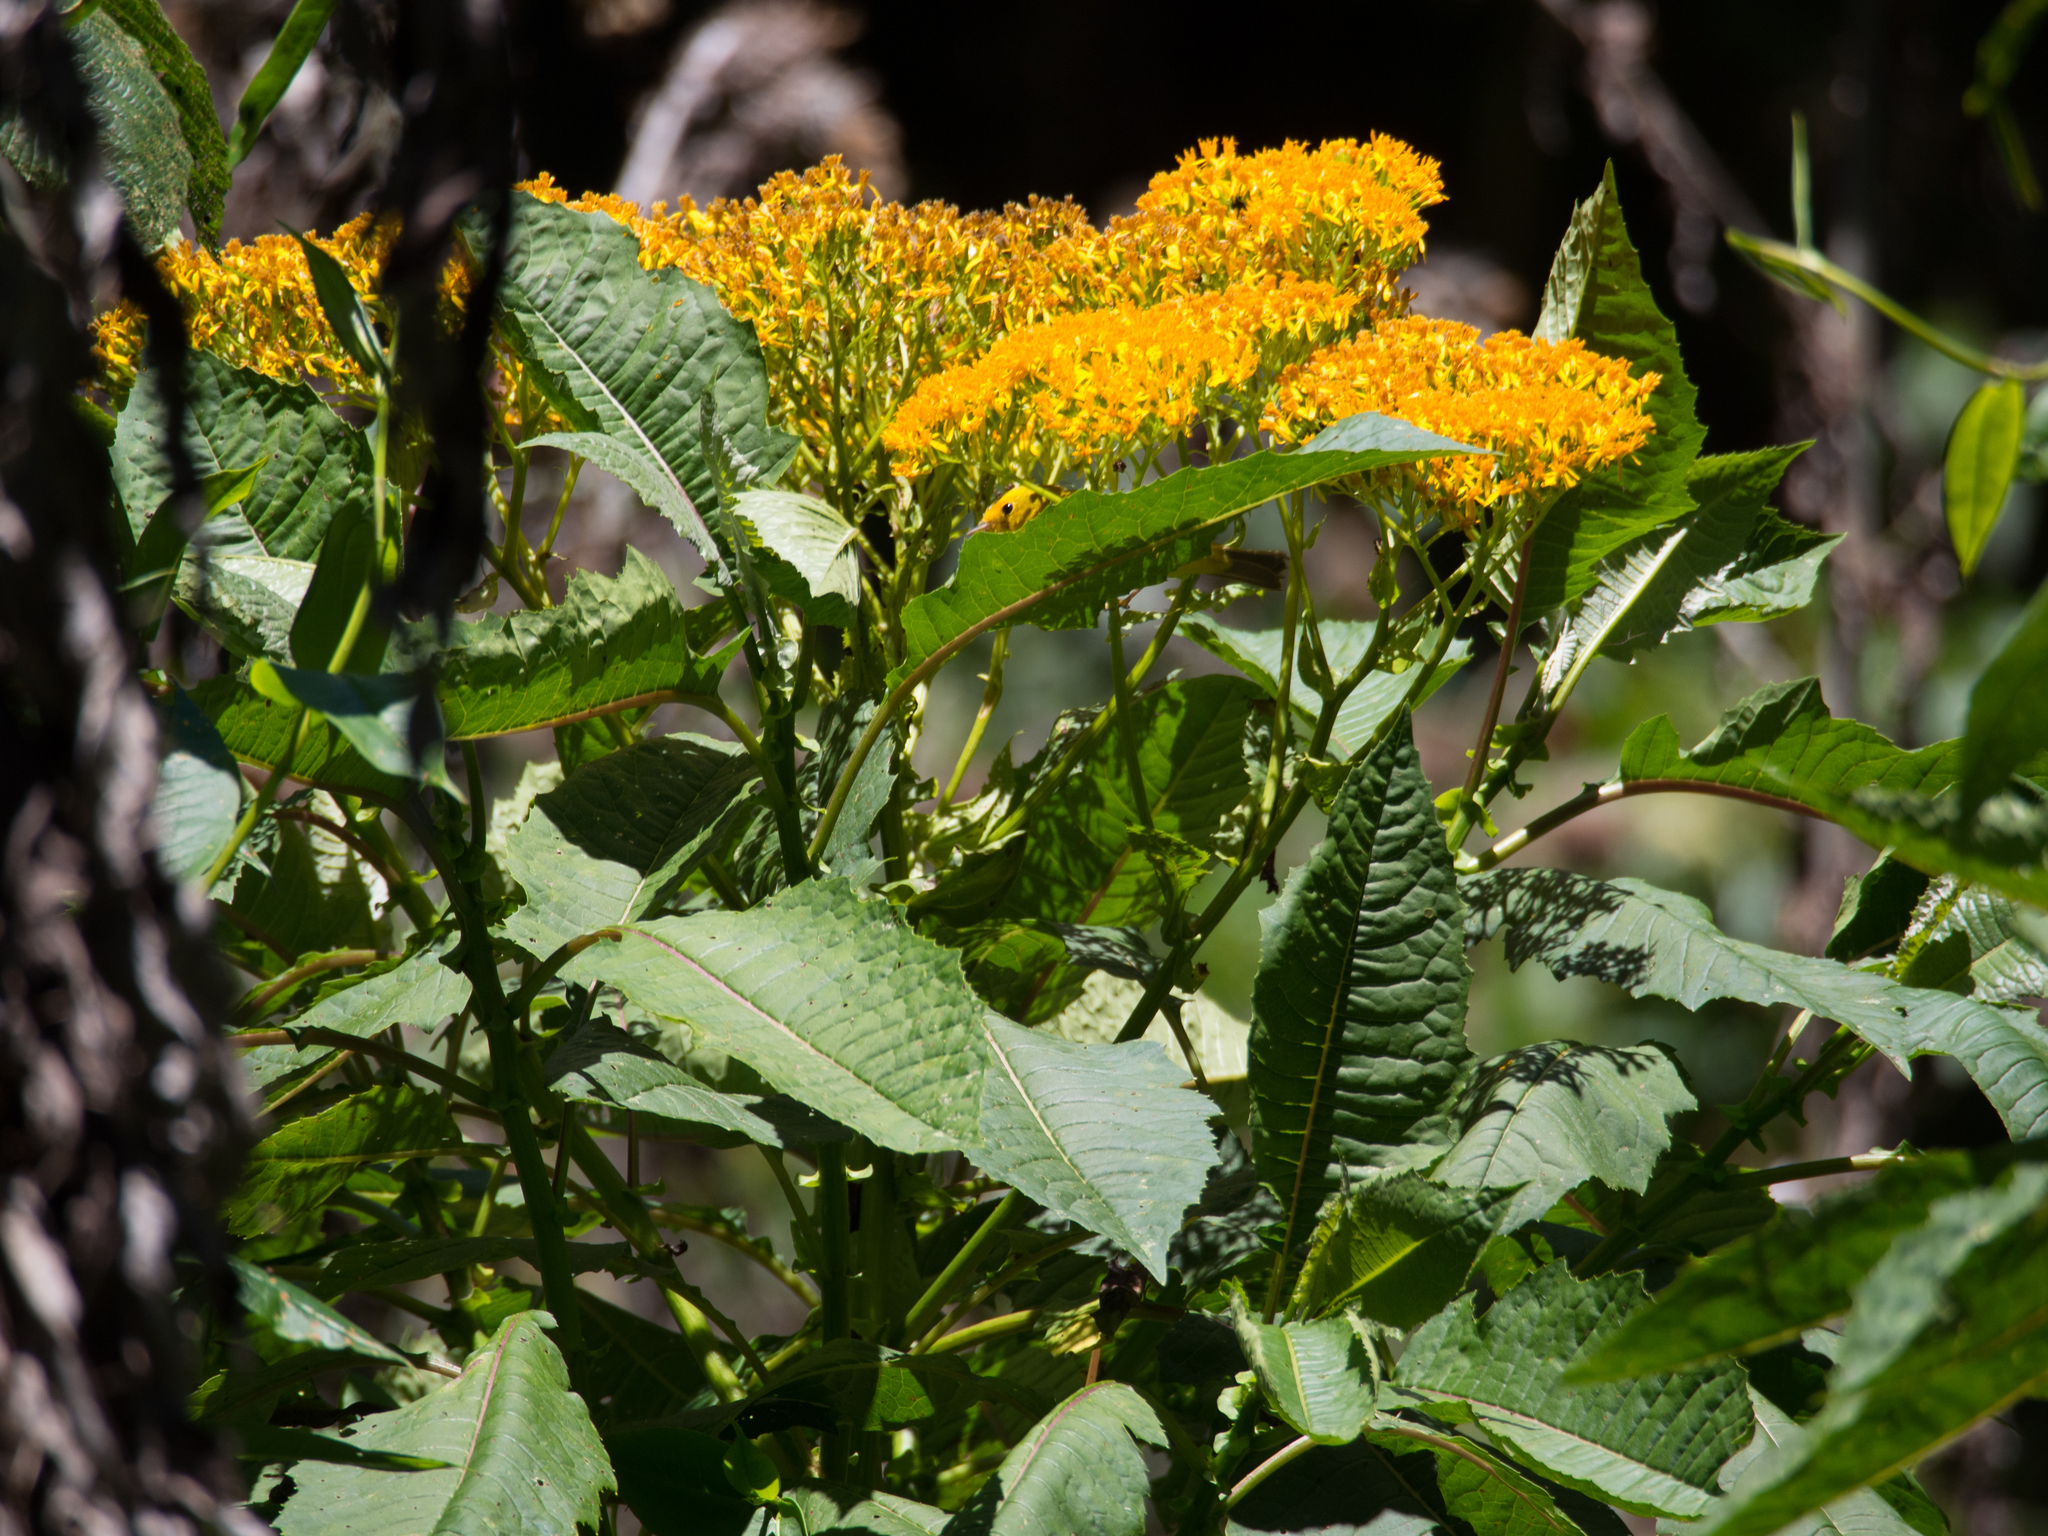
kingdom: Plantae
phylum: Tracheophyta
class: Magnoliopsida
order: Asterales
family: Asteraceae
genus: Jessea
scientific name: Jessea cooperi
